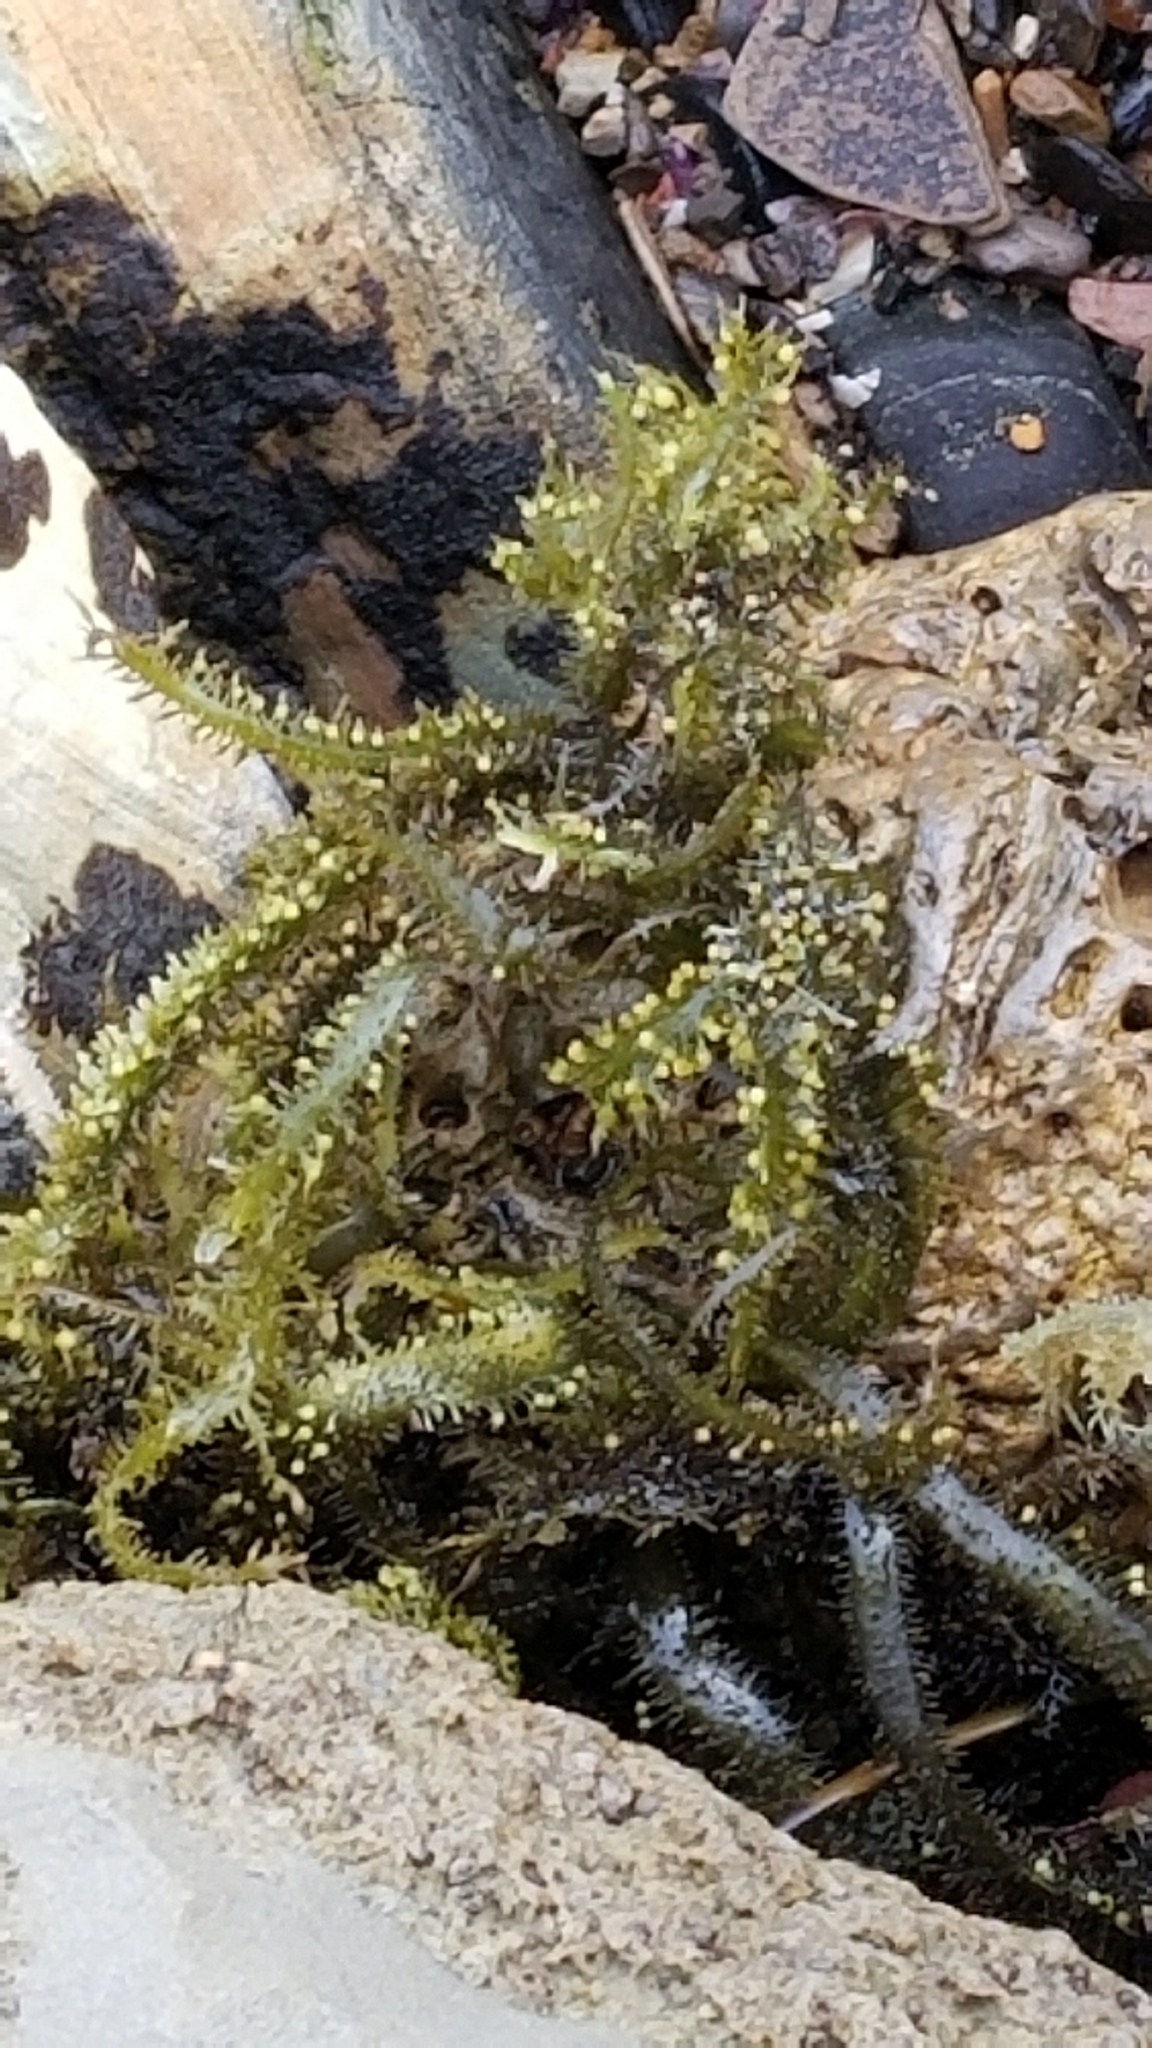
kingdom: Chromista
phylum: Ochrophyta
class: Phaeophyceae
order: Laminariales
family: Lessoniaceae
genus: Egregia
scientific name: Egregia menziesii
